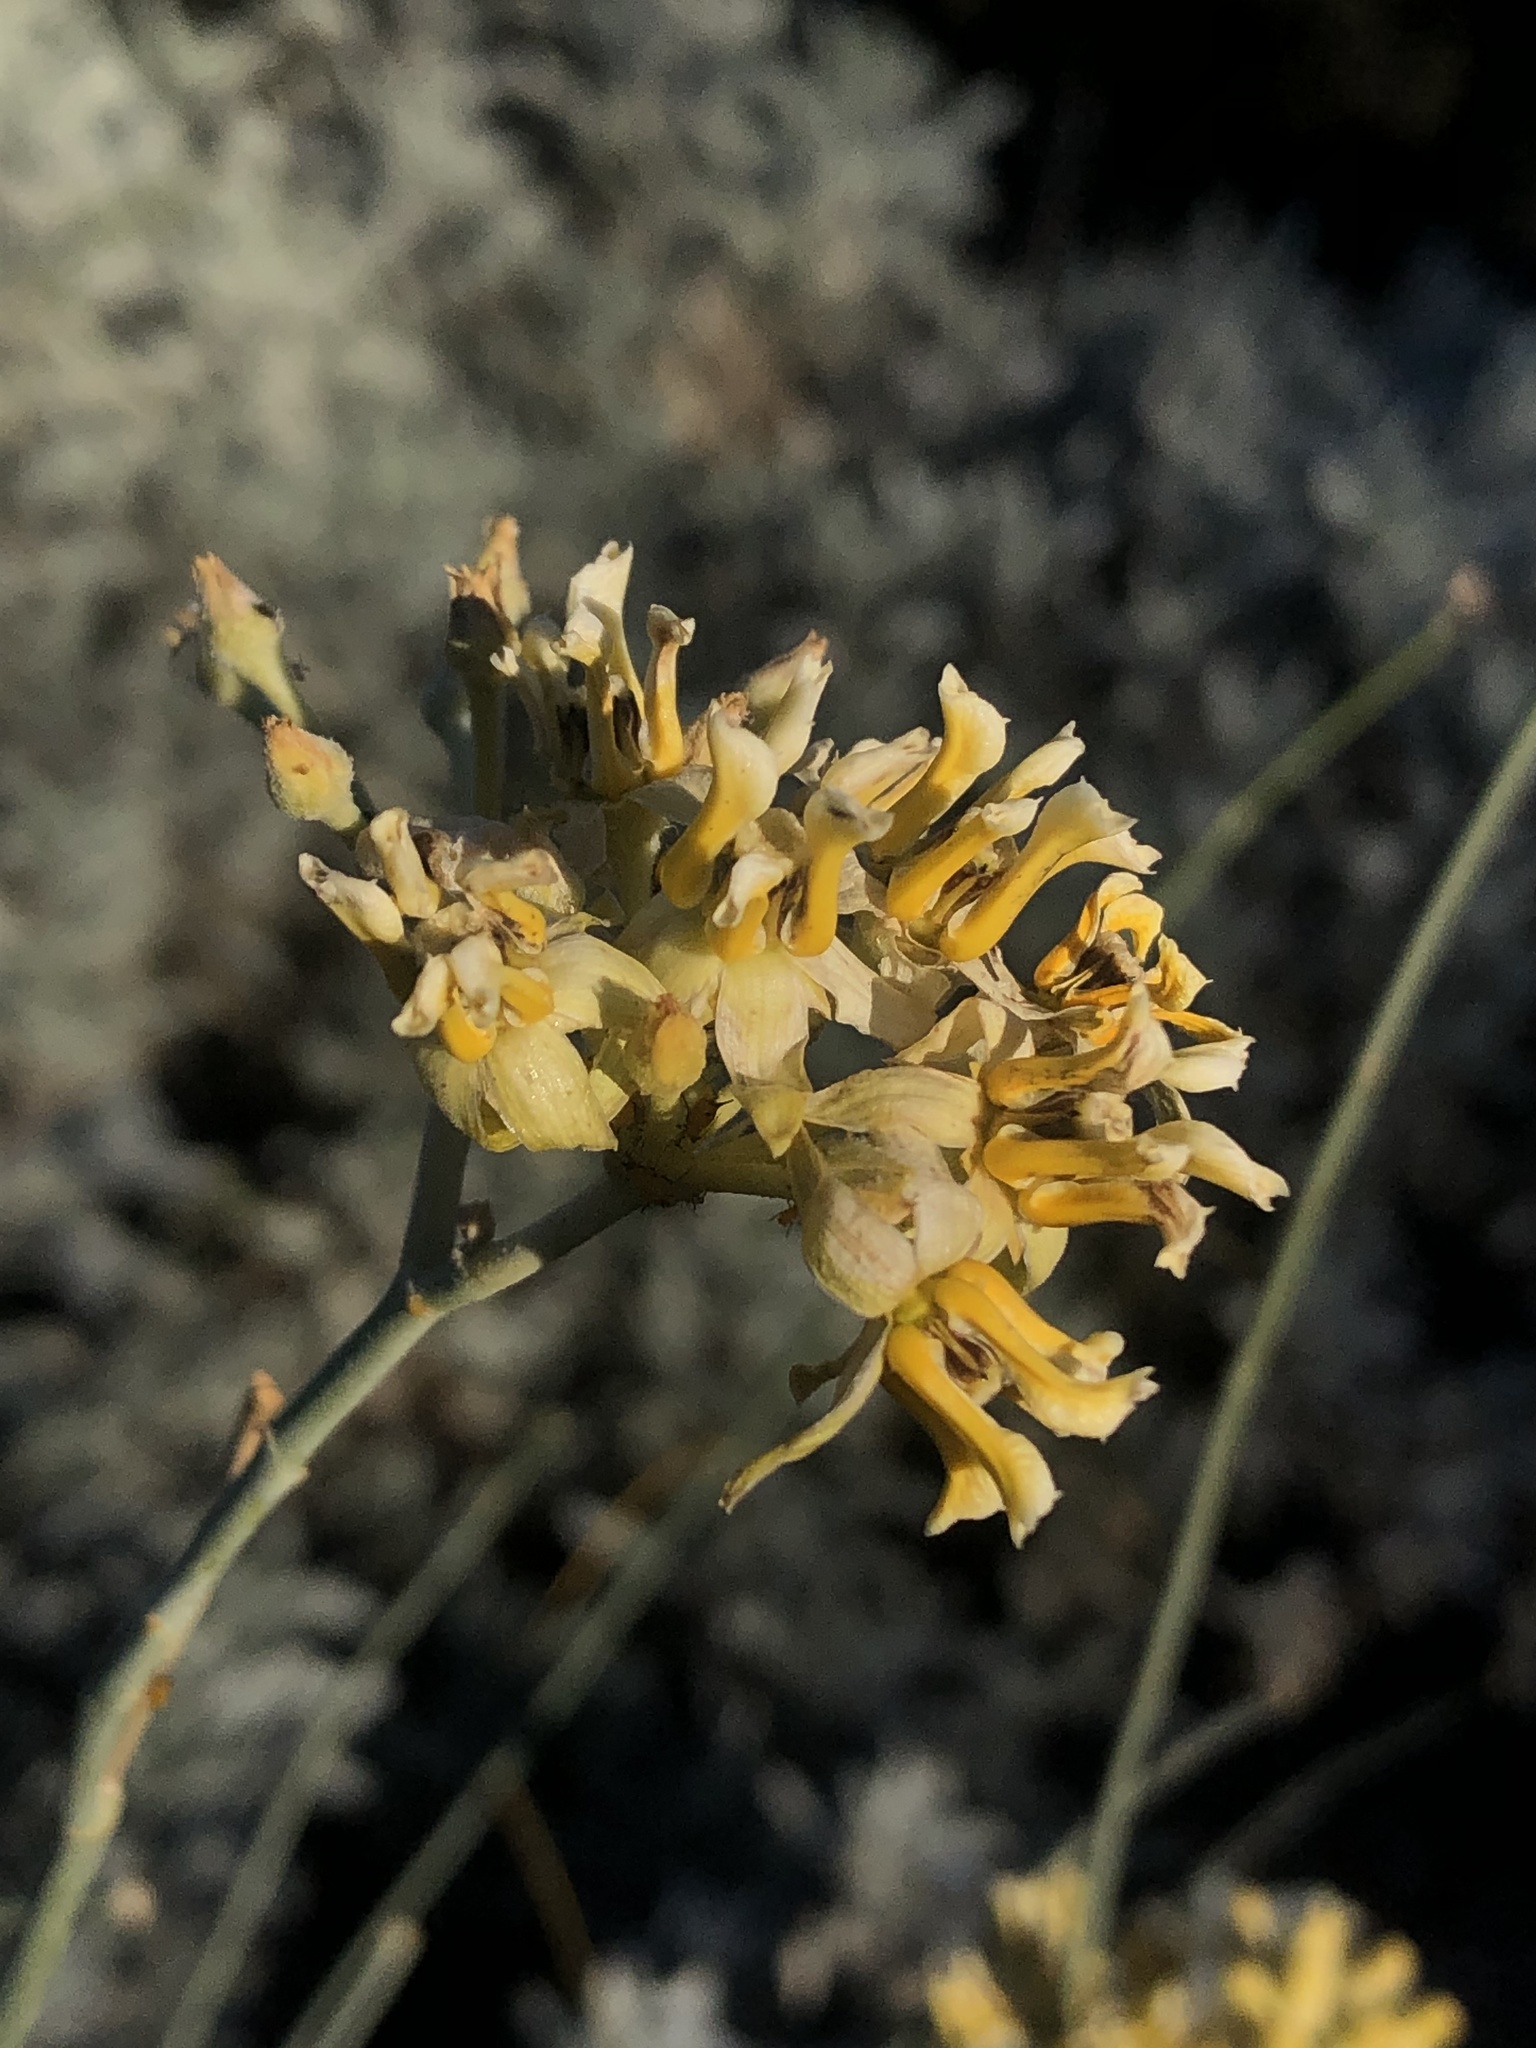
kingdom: Plantae
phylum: Tracheophyta
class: Magnoliopsida
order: Gentianales
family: Apocynaceae
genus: Asclepias
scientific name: Asclepias subulata
